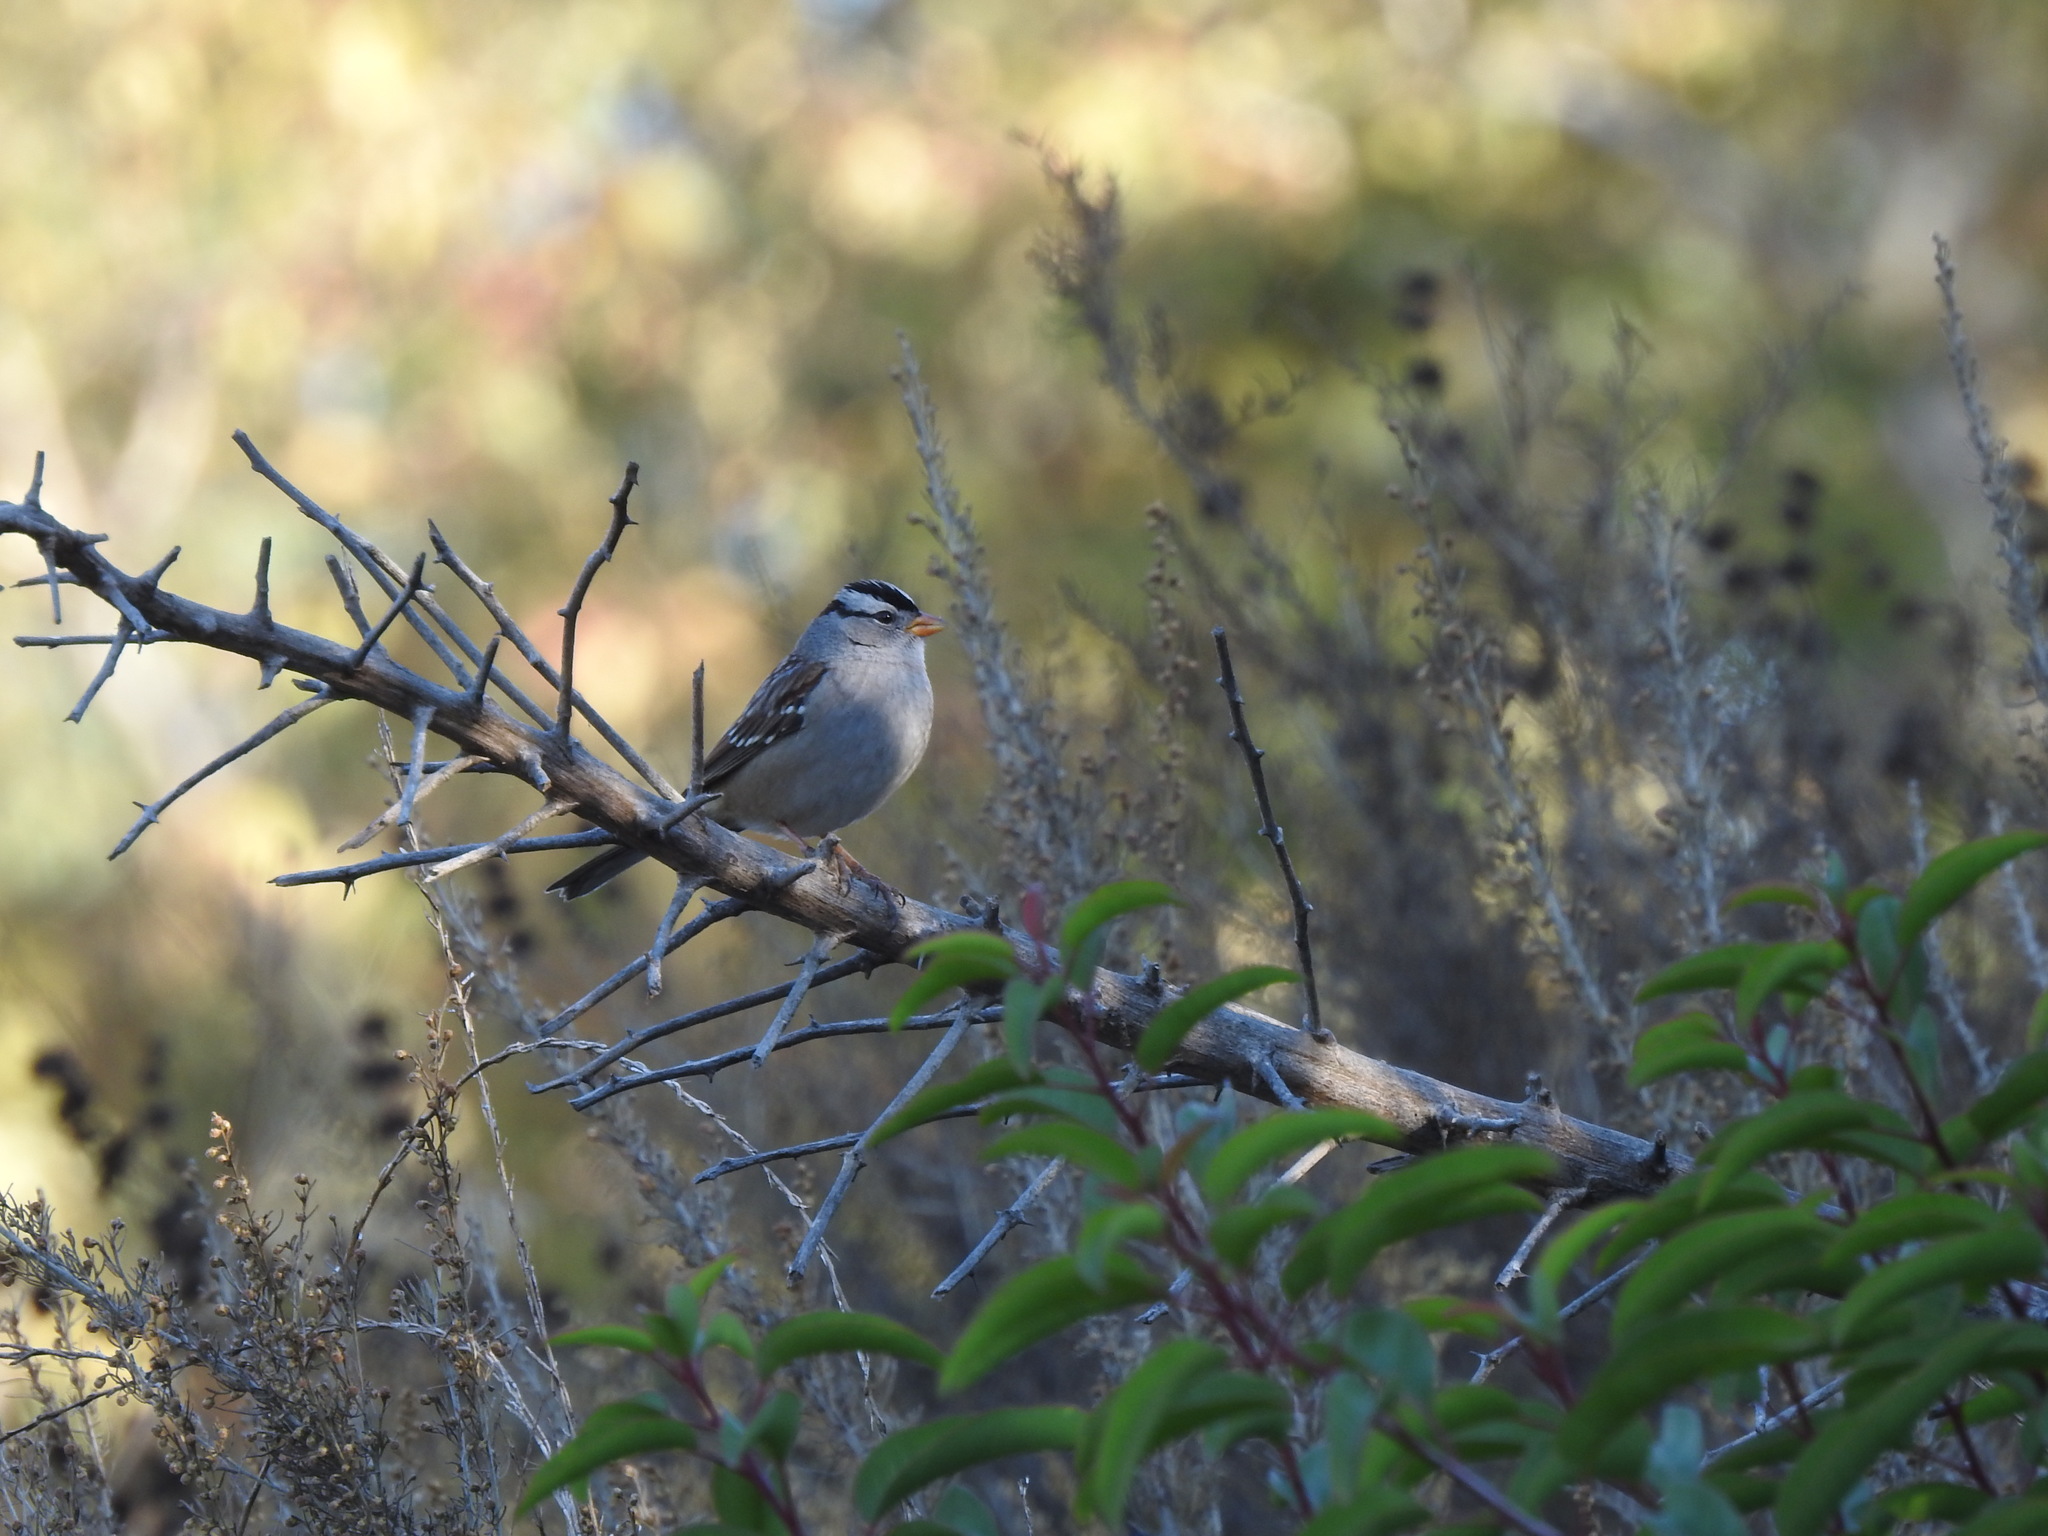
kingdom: Animalia
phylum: Chordata
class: Aves
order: Passeriformes
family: Passerellidae
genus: Zonotrichia
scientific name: Zonotrichia leucophrys
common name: White-crowned sparrow
